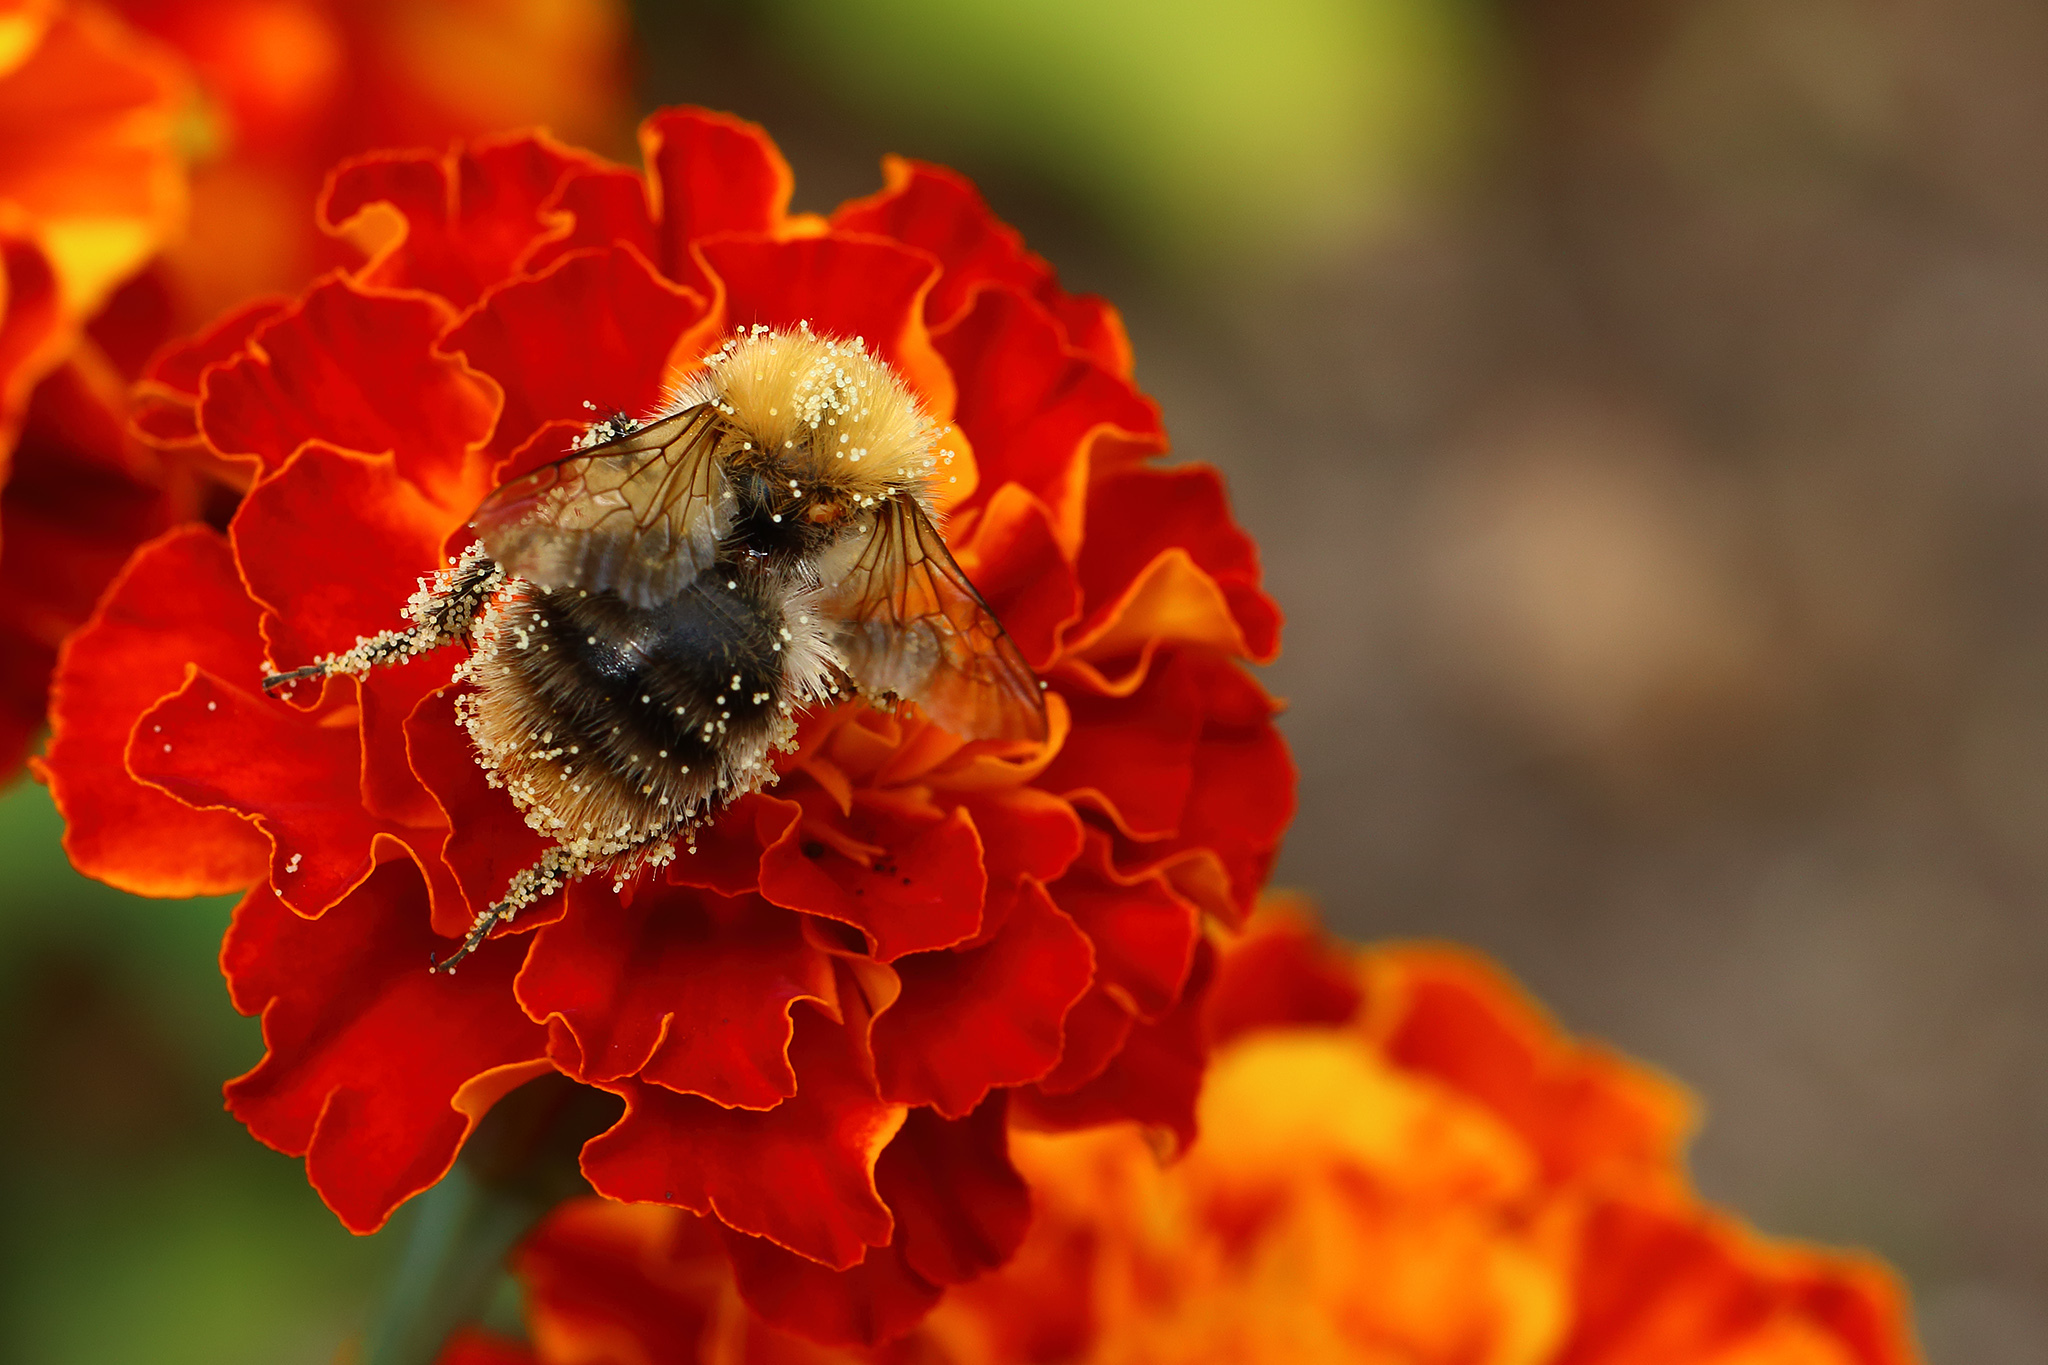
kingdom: Animalia
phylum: Arthropoda
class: Insecta
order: Hymenoptera
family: Apidae
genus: Bombus
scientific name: Bombus pascuorum
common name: Common carder bee
